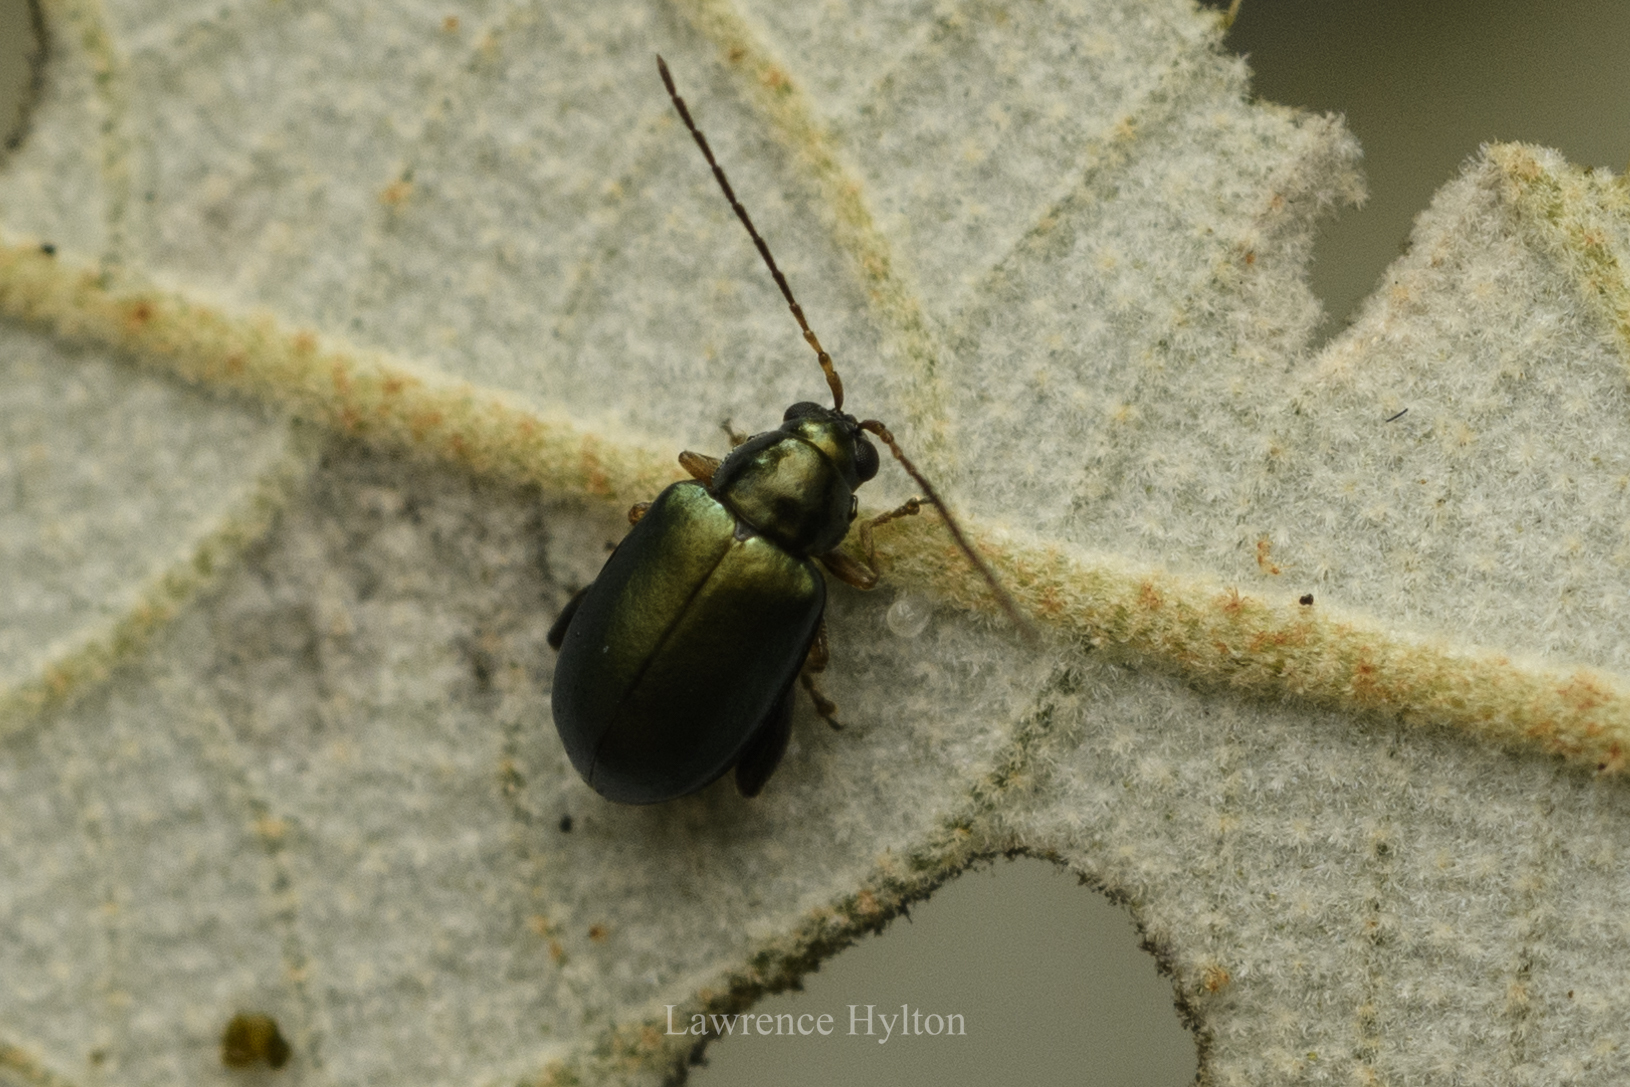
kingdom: Animalia
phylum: Arthropoda
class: Insecta
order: Coleoptera
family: Chrysomelidae
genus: Aphthona
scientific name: Aphthona strigosa
